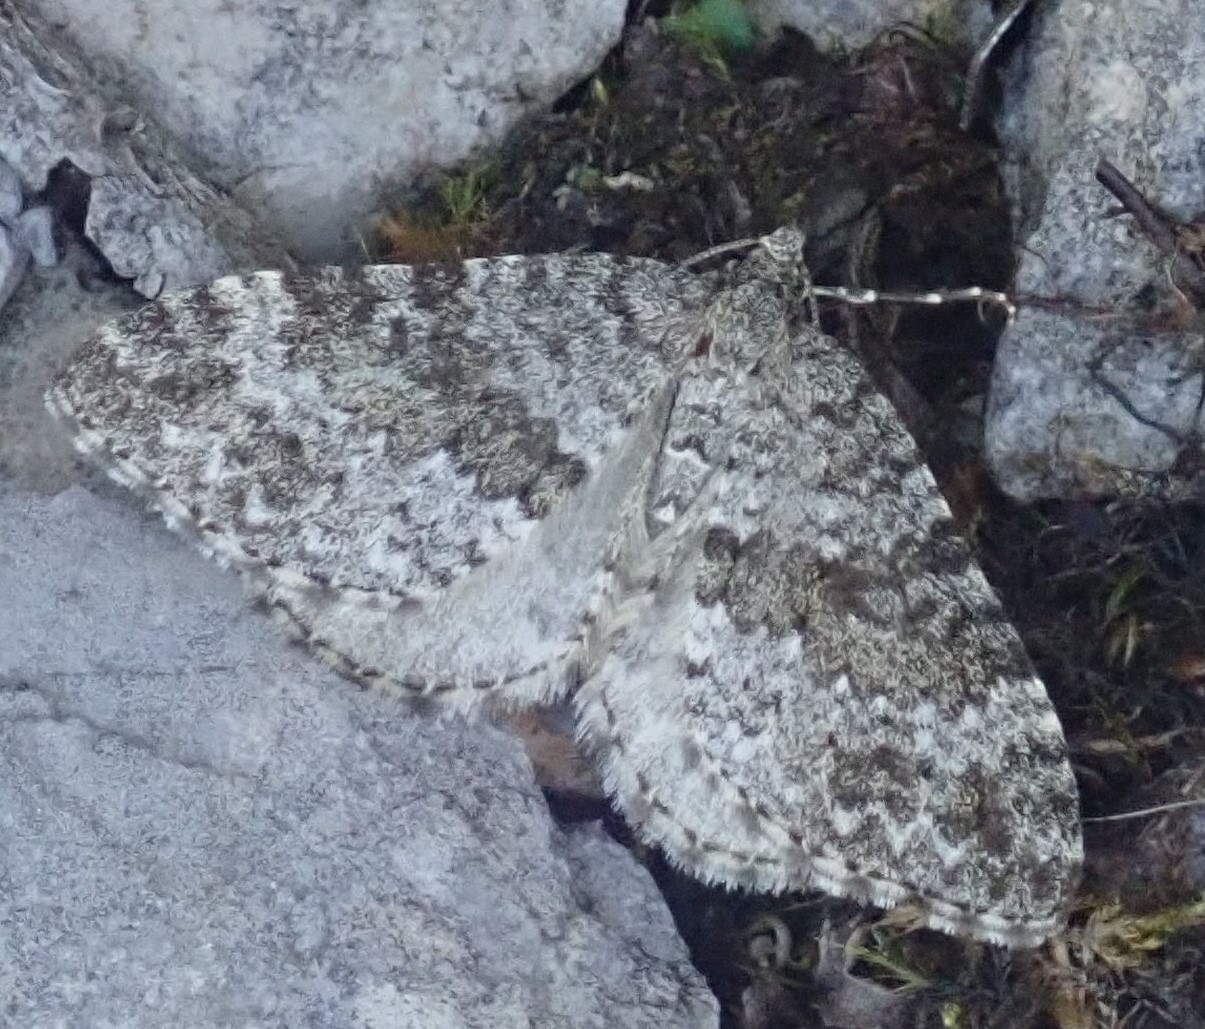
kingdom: Animalia
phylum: Arthropoda
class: Insecta
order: Lepidoptera
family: Geometridae
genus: Entephria
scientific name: Entephria caesiata
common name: Grey mountain moth
